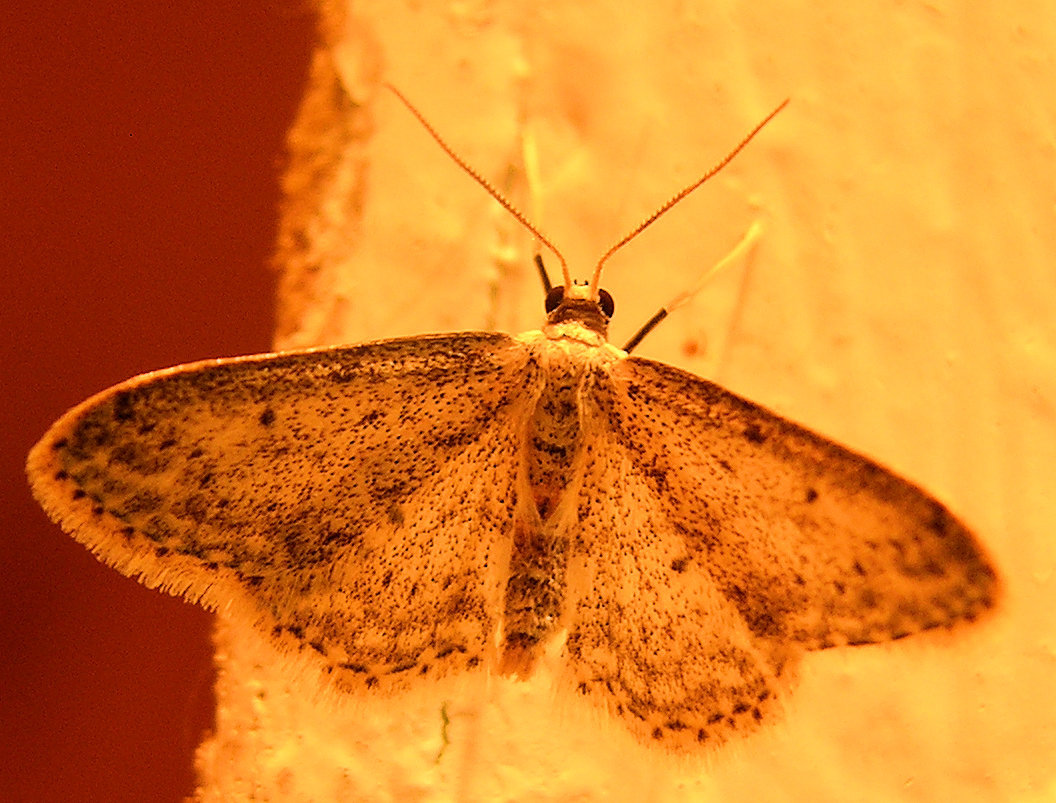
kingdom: Animalia
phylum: Arthropoda
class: Insecta
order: Lepidoptera
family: Geometridae
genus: Idaea
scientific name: Idaea seriata
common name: Small dusty wave
